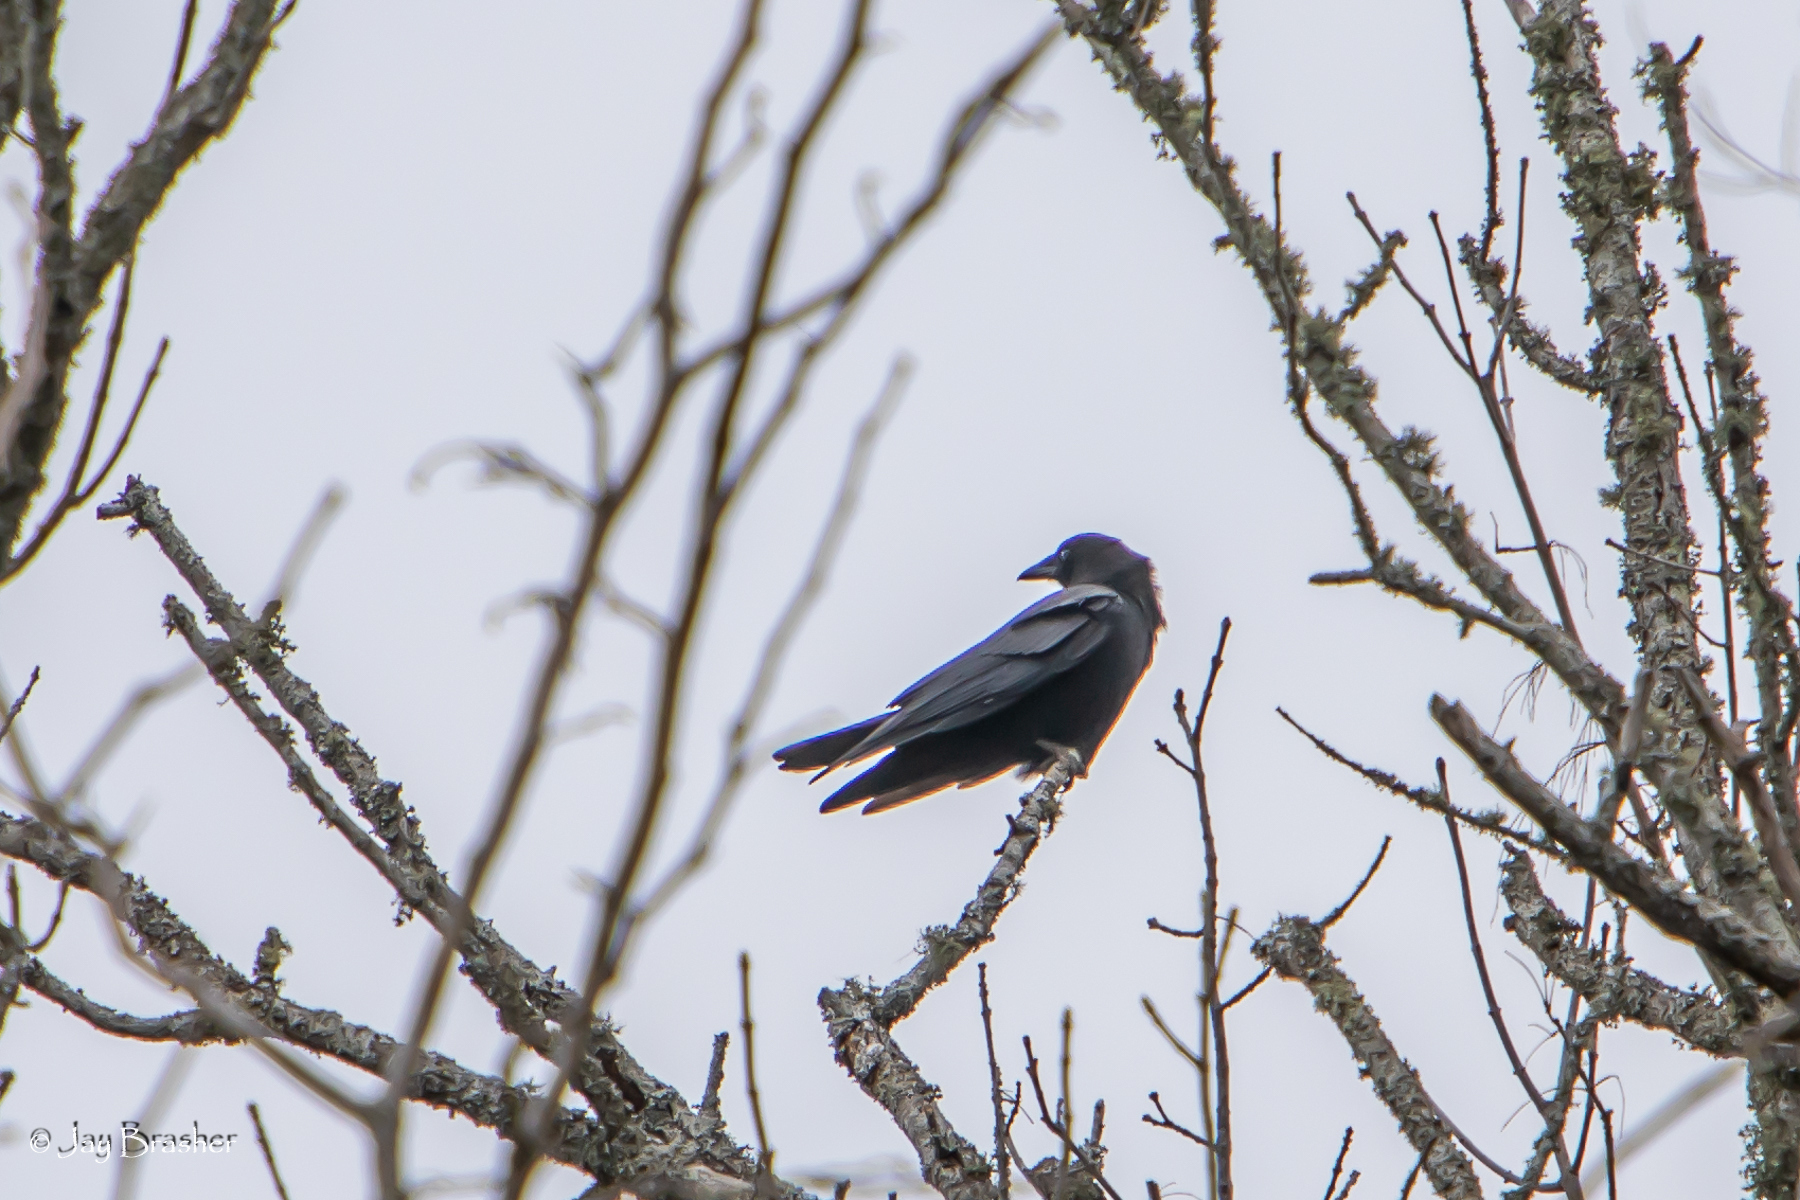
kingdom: Animalia
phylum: Chordata
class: Aves
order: Passeriformes
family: Corvidae
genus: Corvus
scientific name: Corvus brachyrhynchos
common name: American crow
